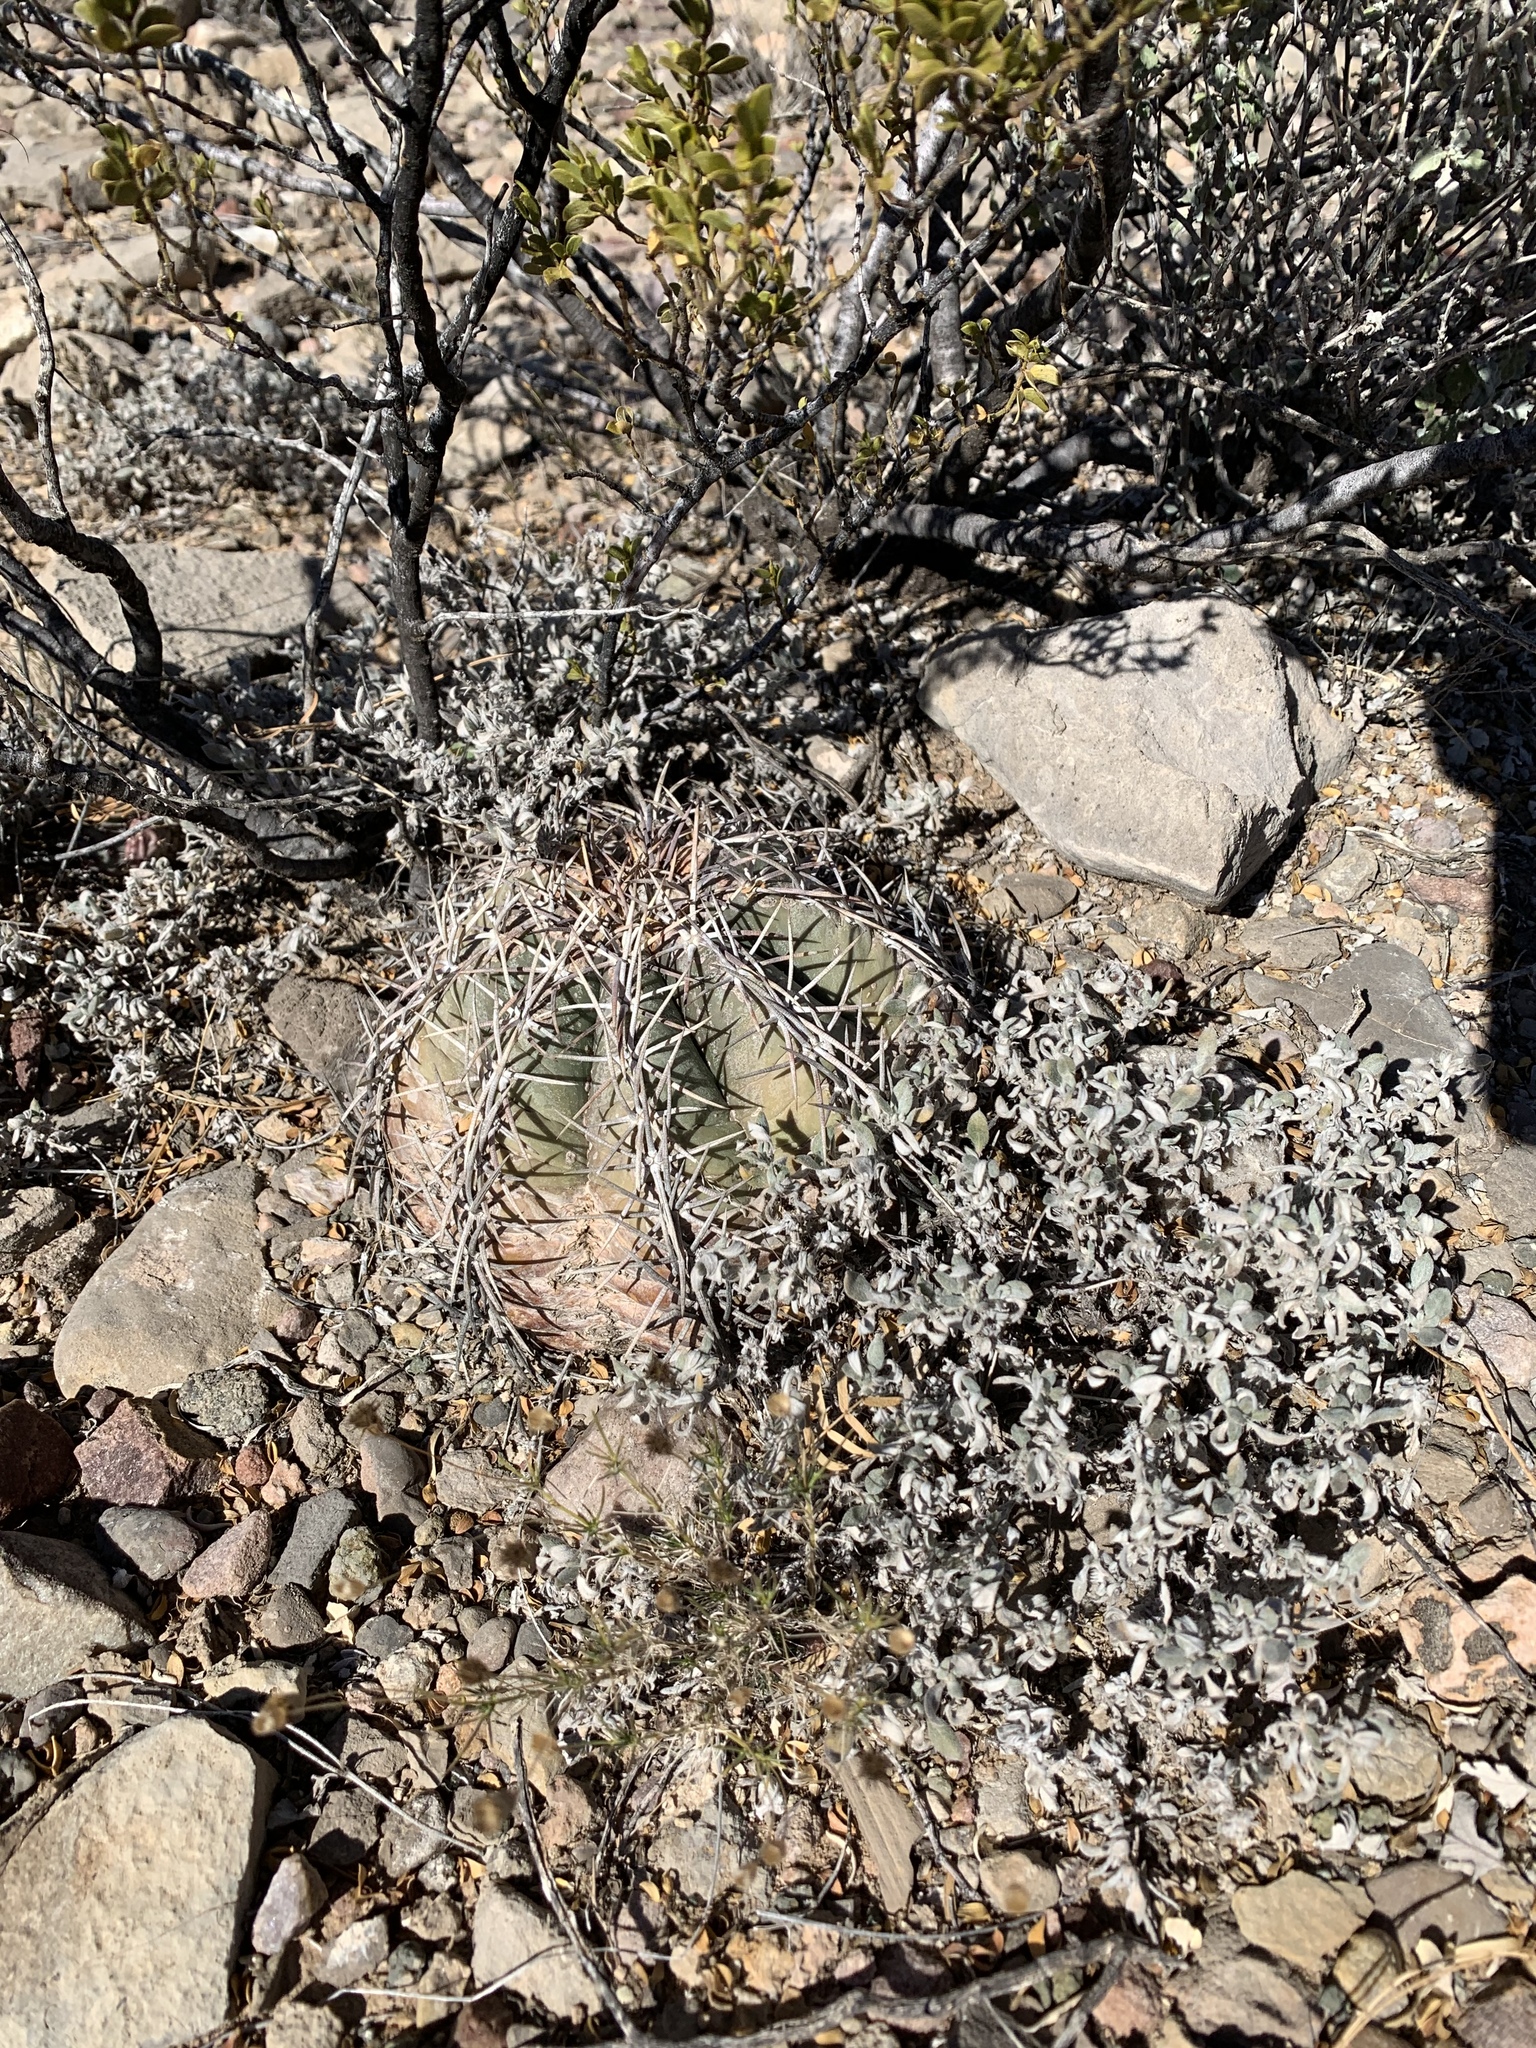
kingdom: Plantae
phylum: Tracheophyta
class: Magnoliopsida
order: Caryophyllales
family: Cactaceae
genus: Echinocactus
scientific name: Echinocactus horizonthalonius
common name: Devilshead
